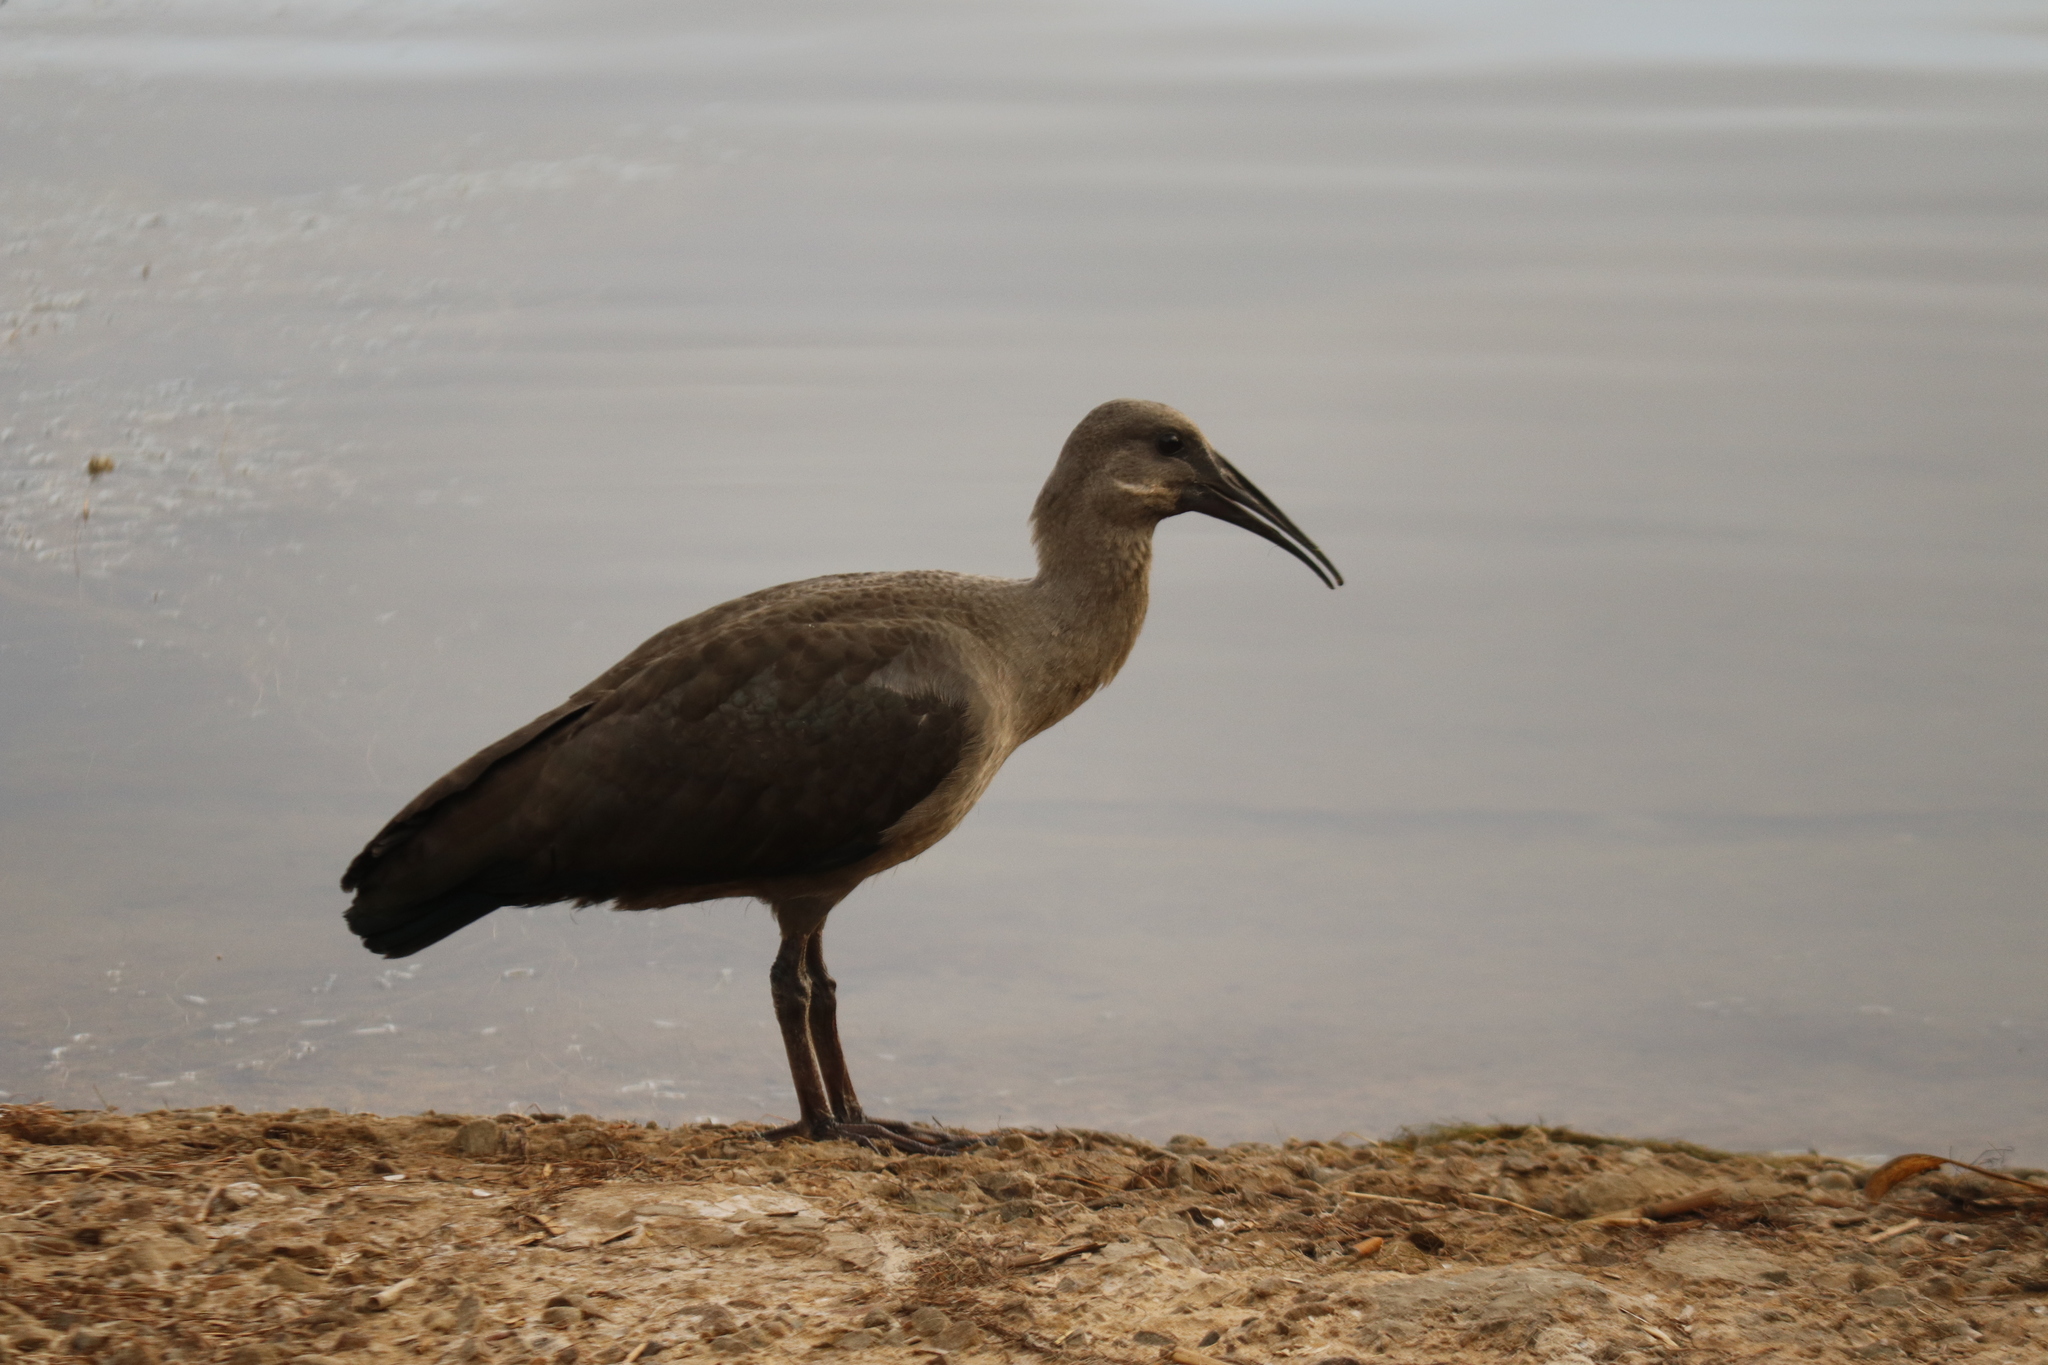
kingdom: Animalia
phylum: Chordata
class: Aves
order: Pelecaniformes
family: Threskiornithidae
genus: Bostrychia
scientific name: Bostrychia hagedash
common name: Hadada ibis
